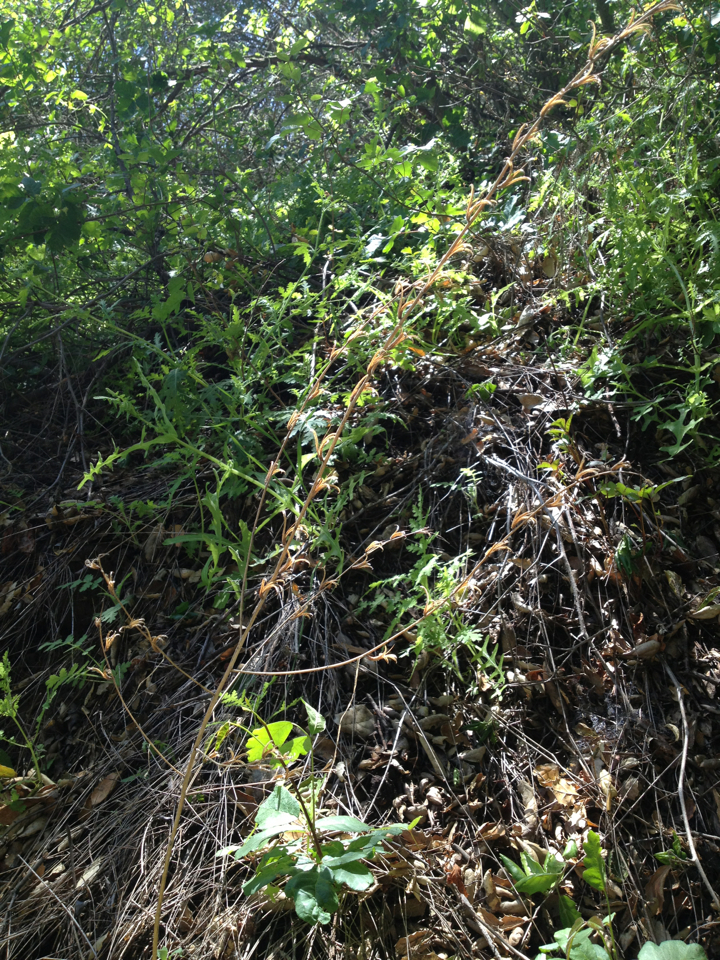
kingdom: Plantae
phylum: Tracheophyta
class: Magnoliopsida
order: Myrtales
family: Onagraceae
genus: Clarkia
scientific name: Clarkia unguiculata
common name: Clarkia
